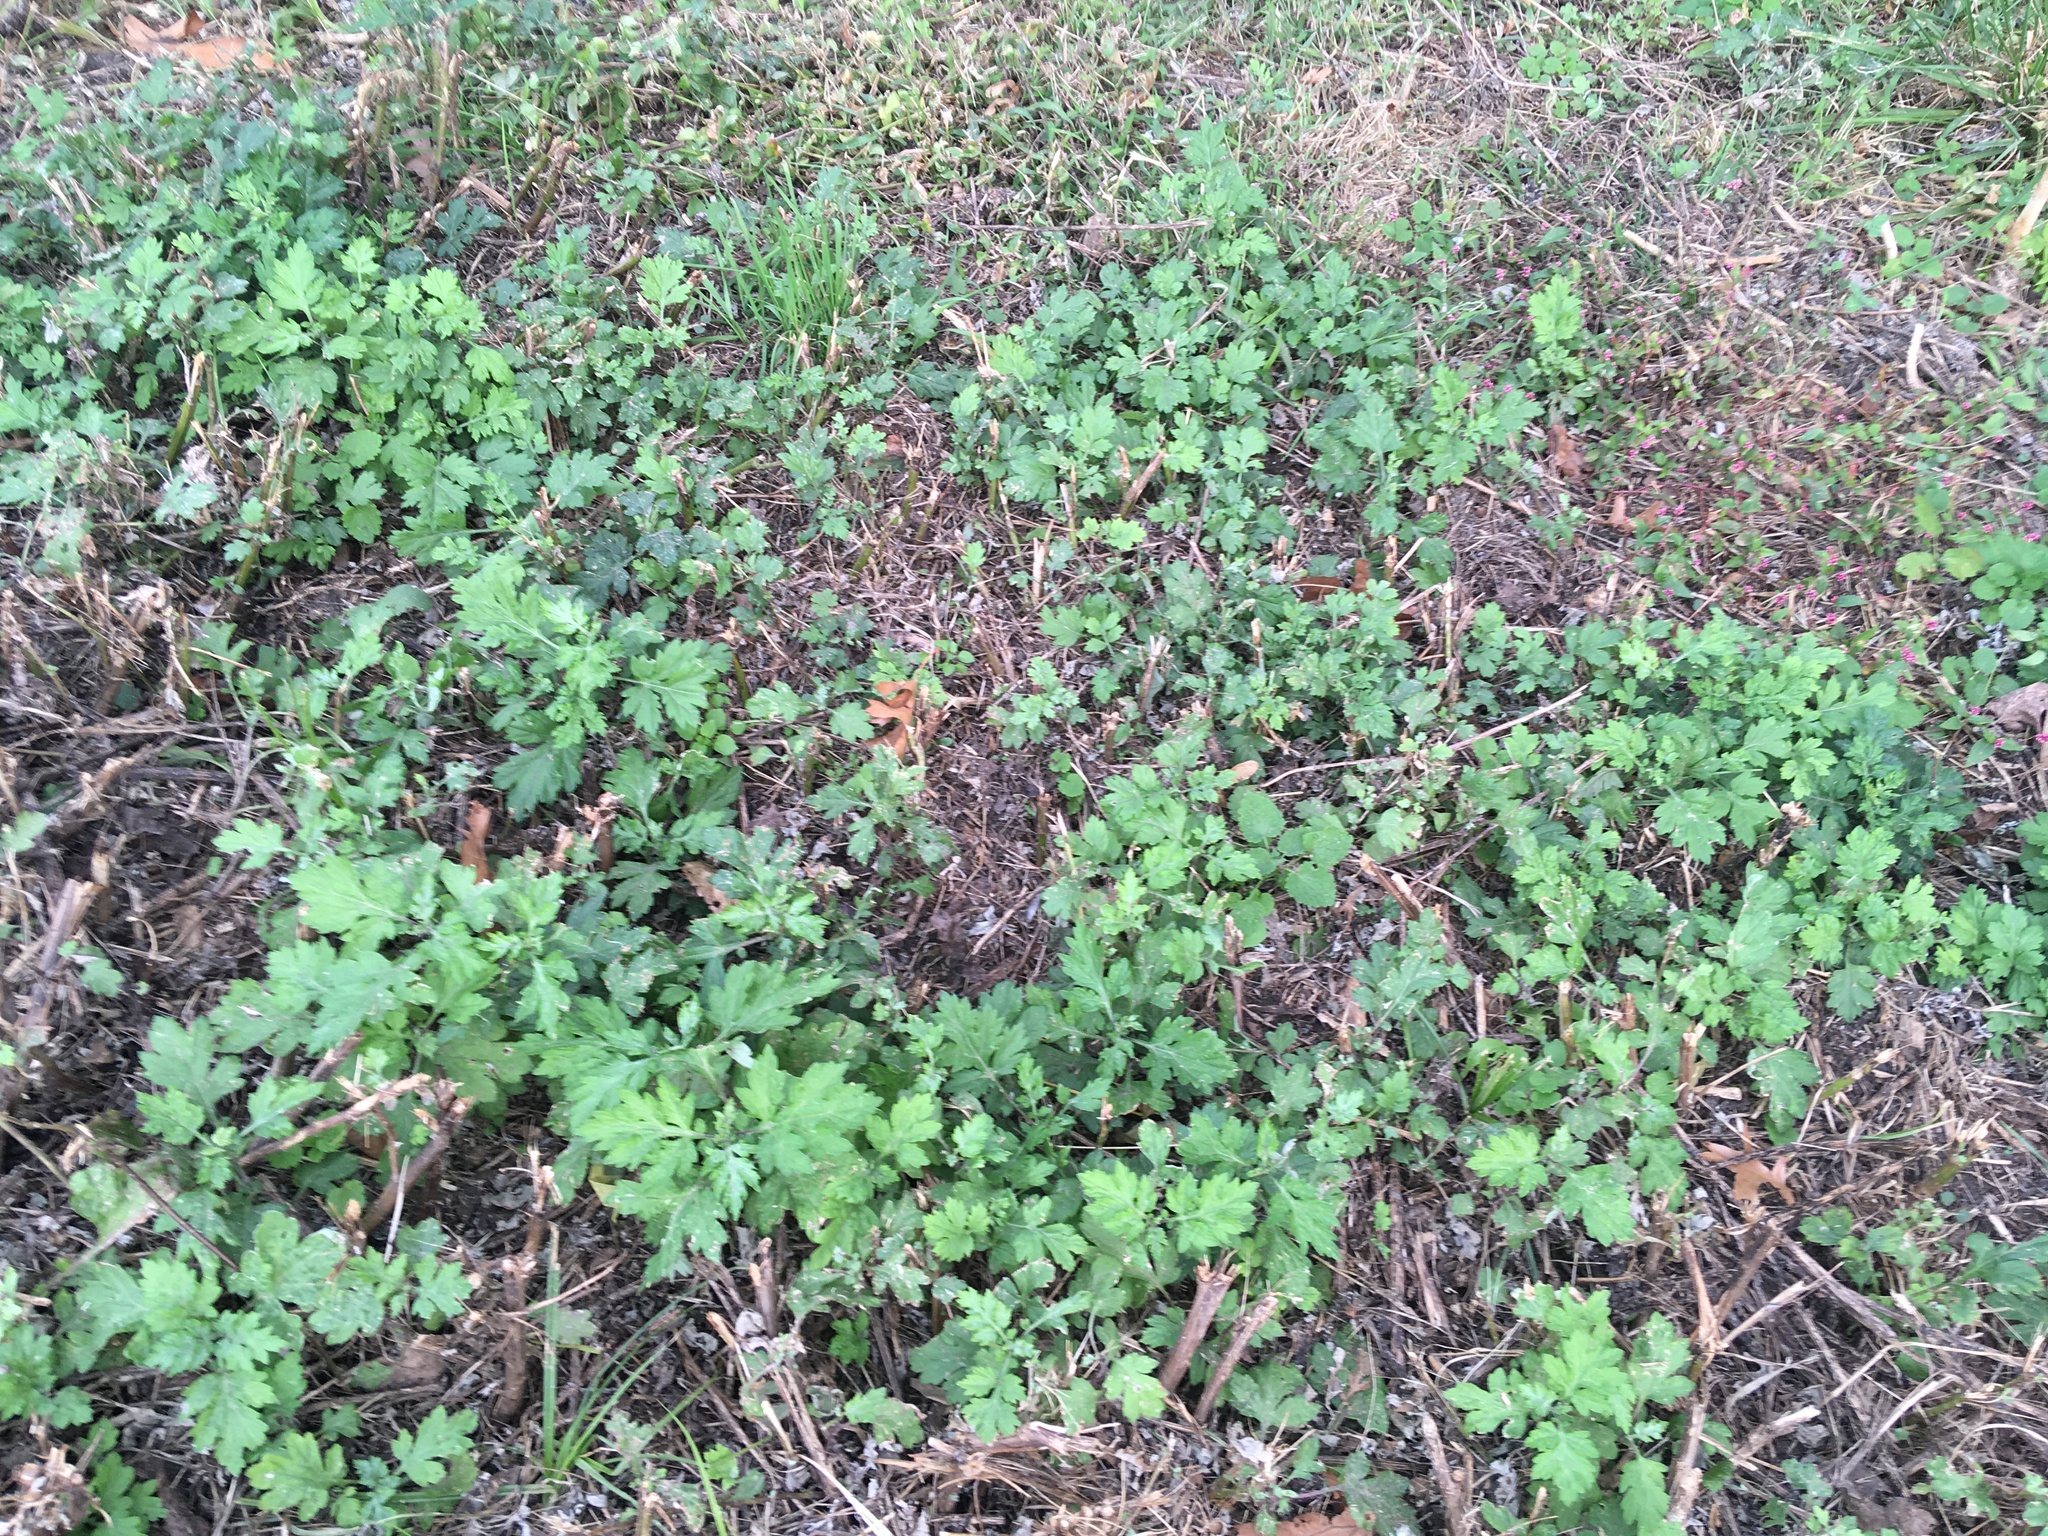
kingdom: Plantae
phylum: Tracheophyta
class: Magnoliopsida
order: Asterales
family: Asteraceae
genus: Artemisia
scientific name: Artemisia vulgaris
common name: Mugwort
